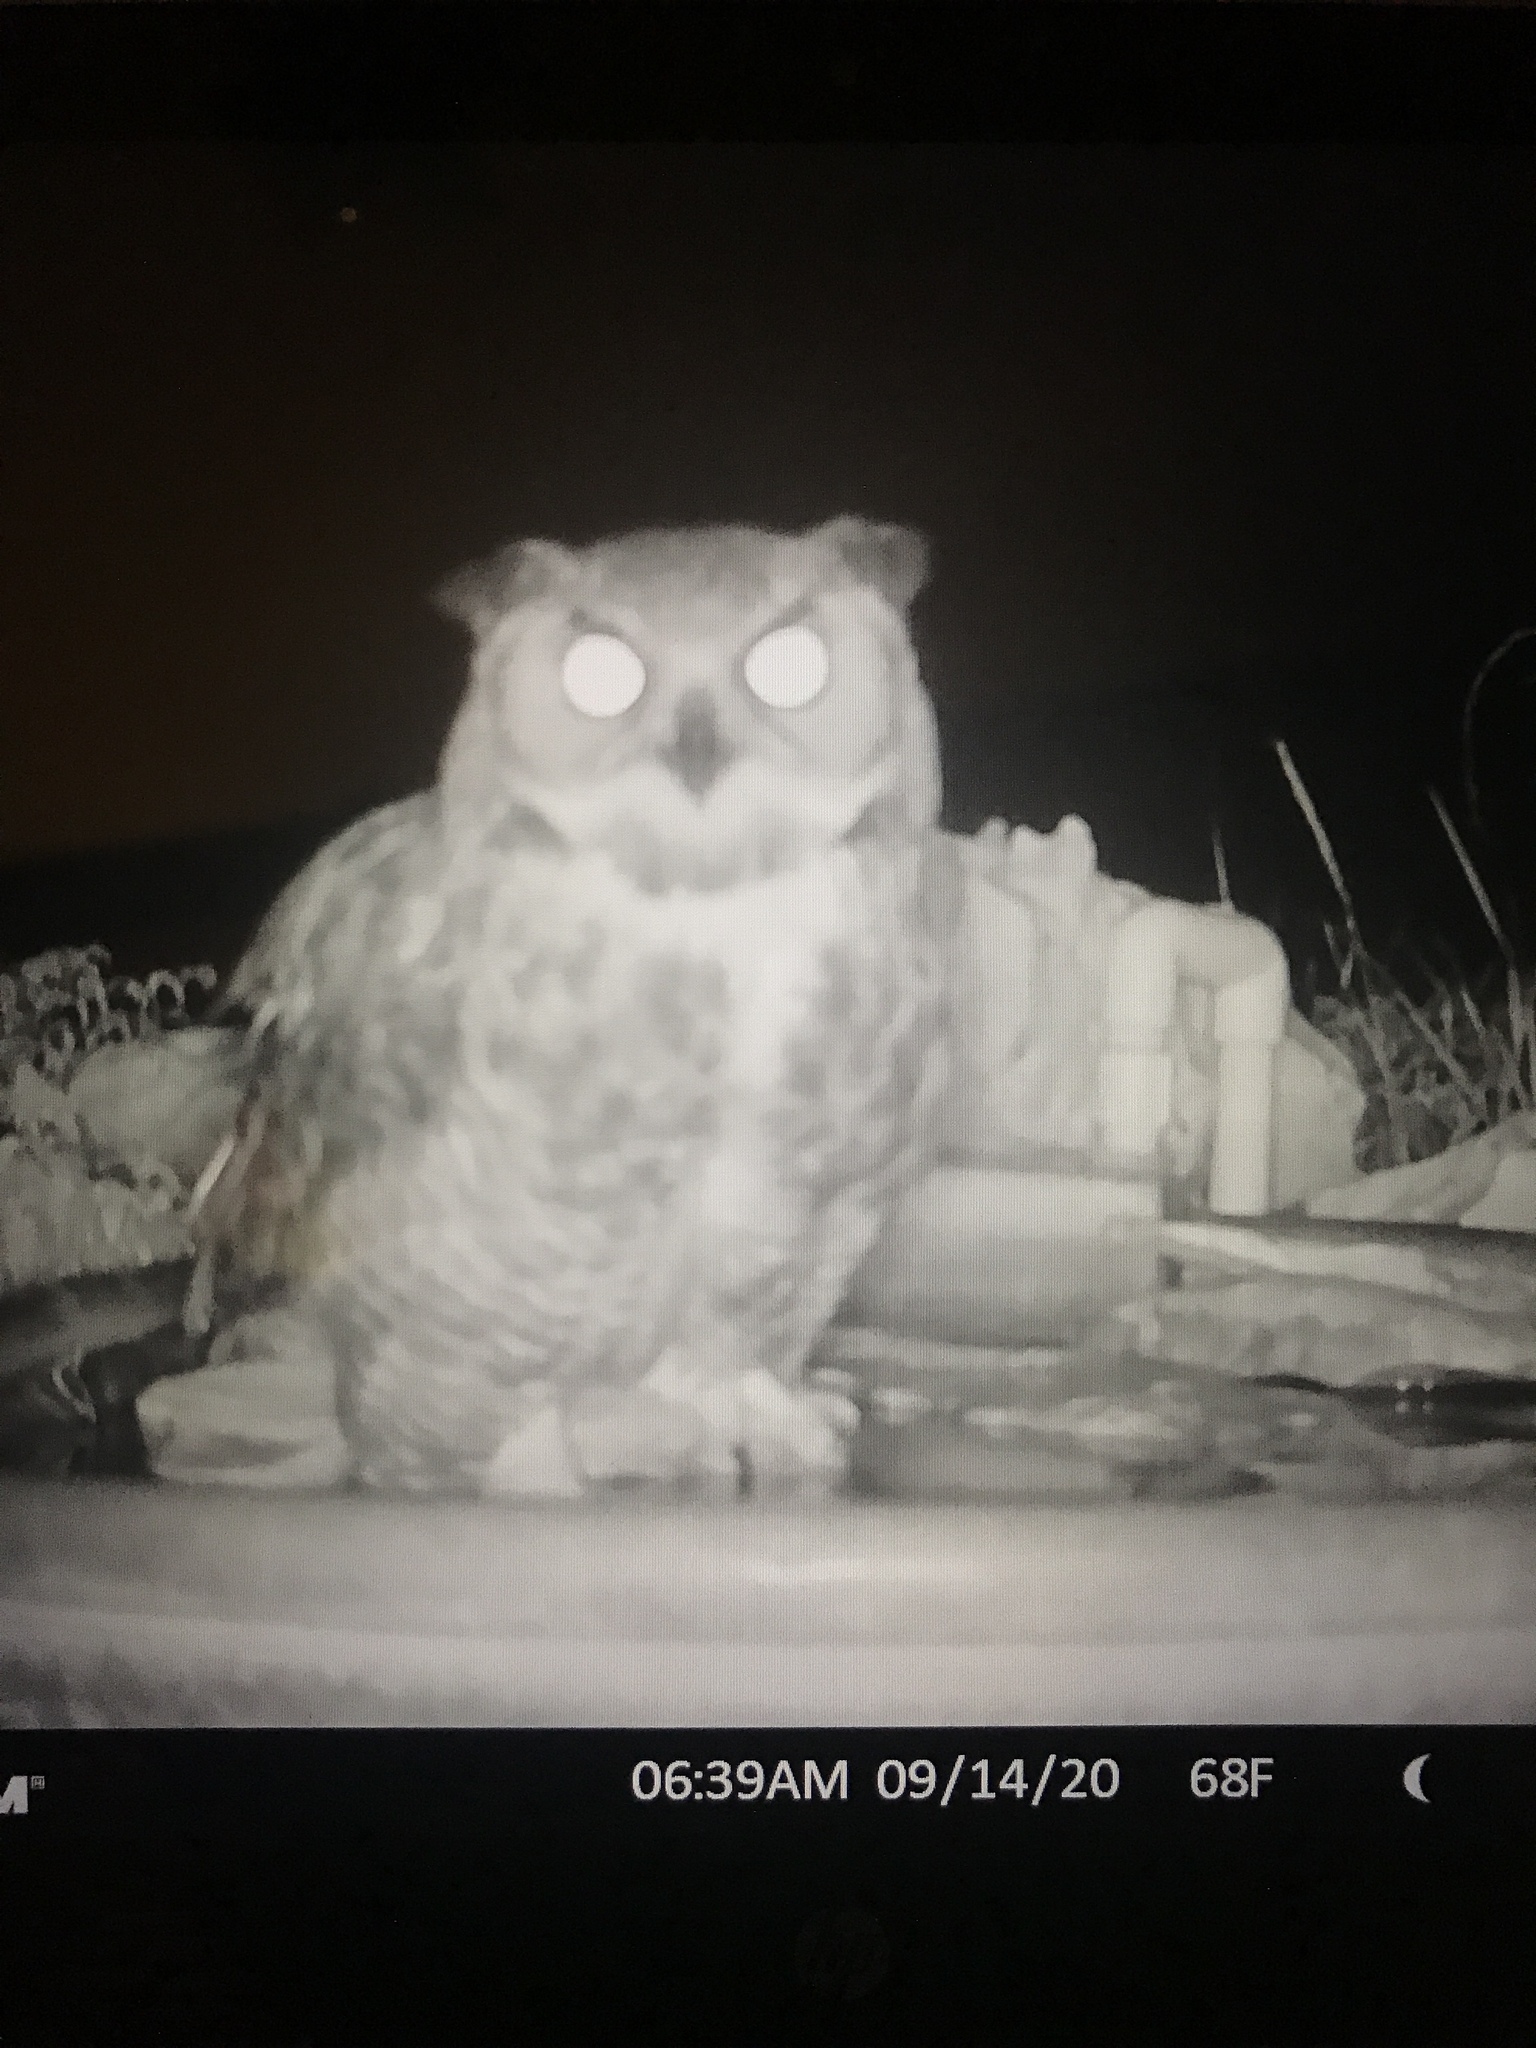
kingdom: Animalia
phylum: Chordata
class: Aves
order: Strigiformes
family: Strigidae
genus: Bubo
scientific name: Bubo virginianus
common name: Great horned owl
